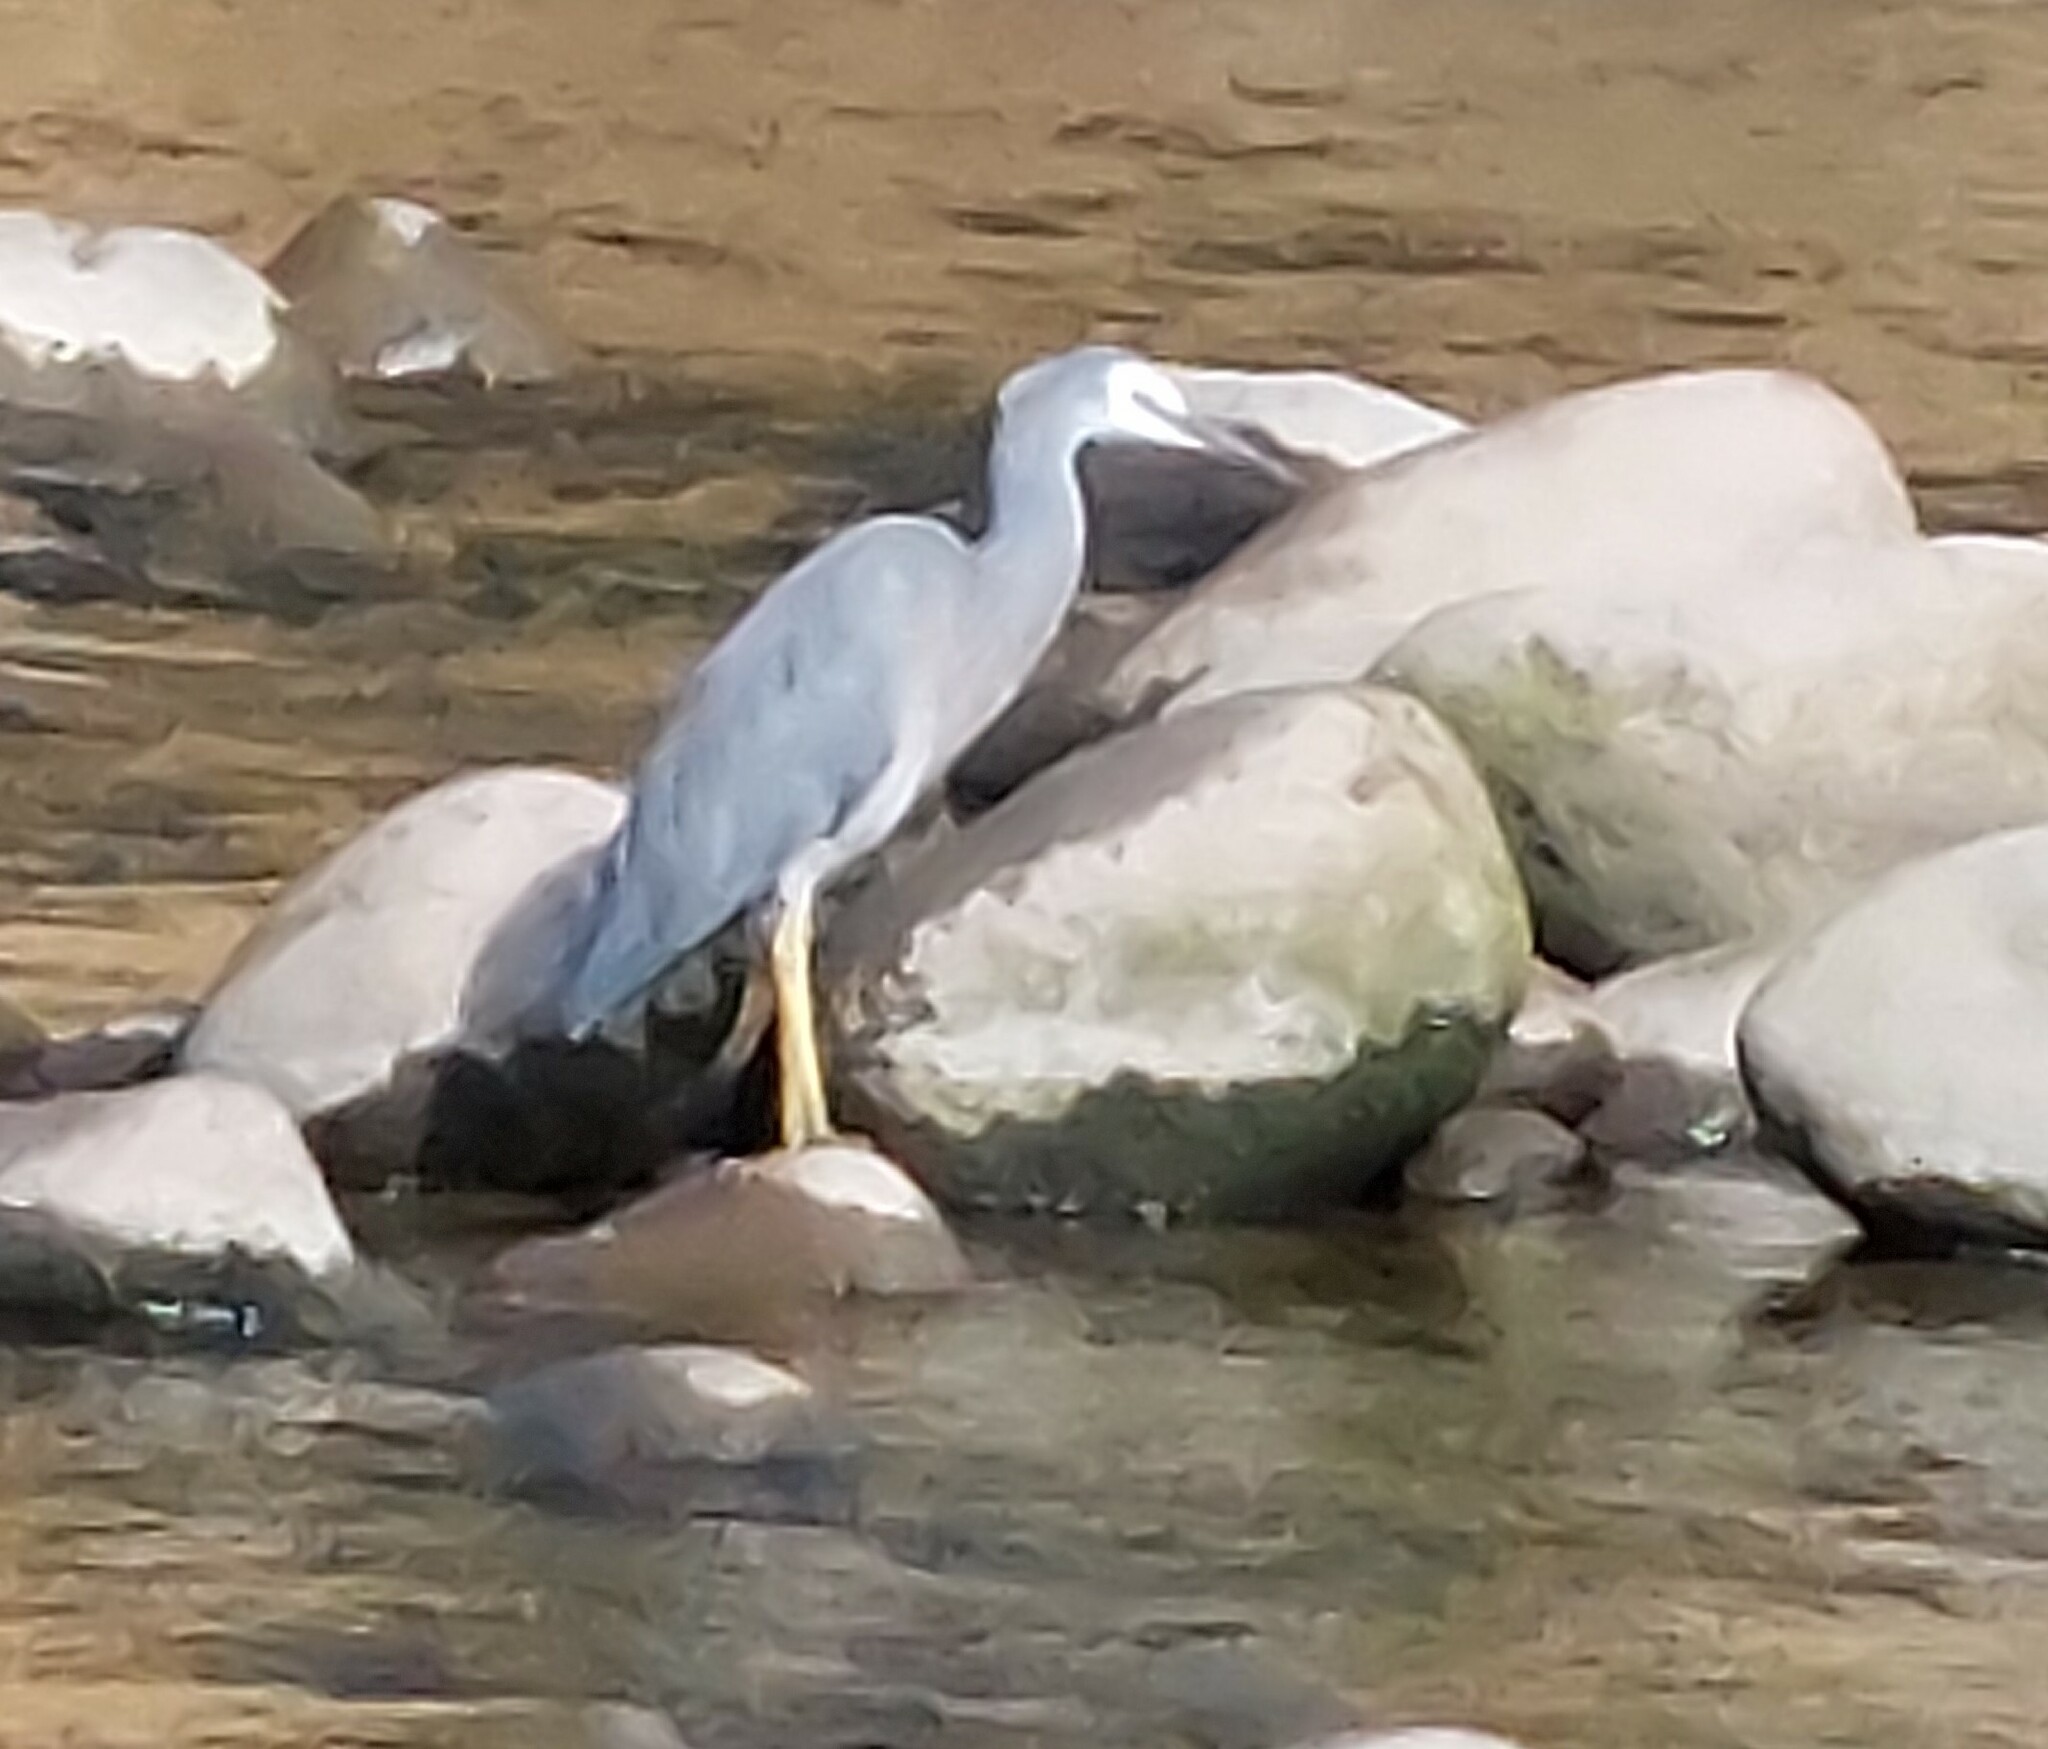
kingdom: Animalia
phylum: Chordata
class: Aves
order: Pelecaniformes
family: Ardeidae
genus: Egretta
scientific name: Egretta novaehollandiae
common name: White-faced heron
